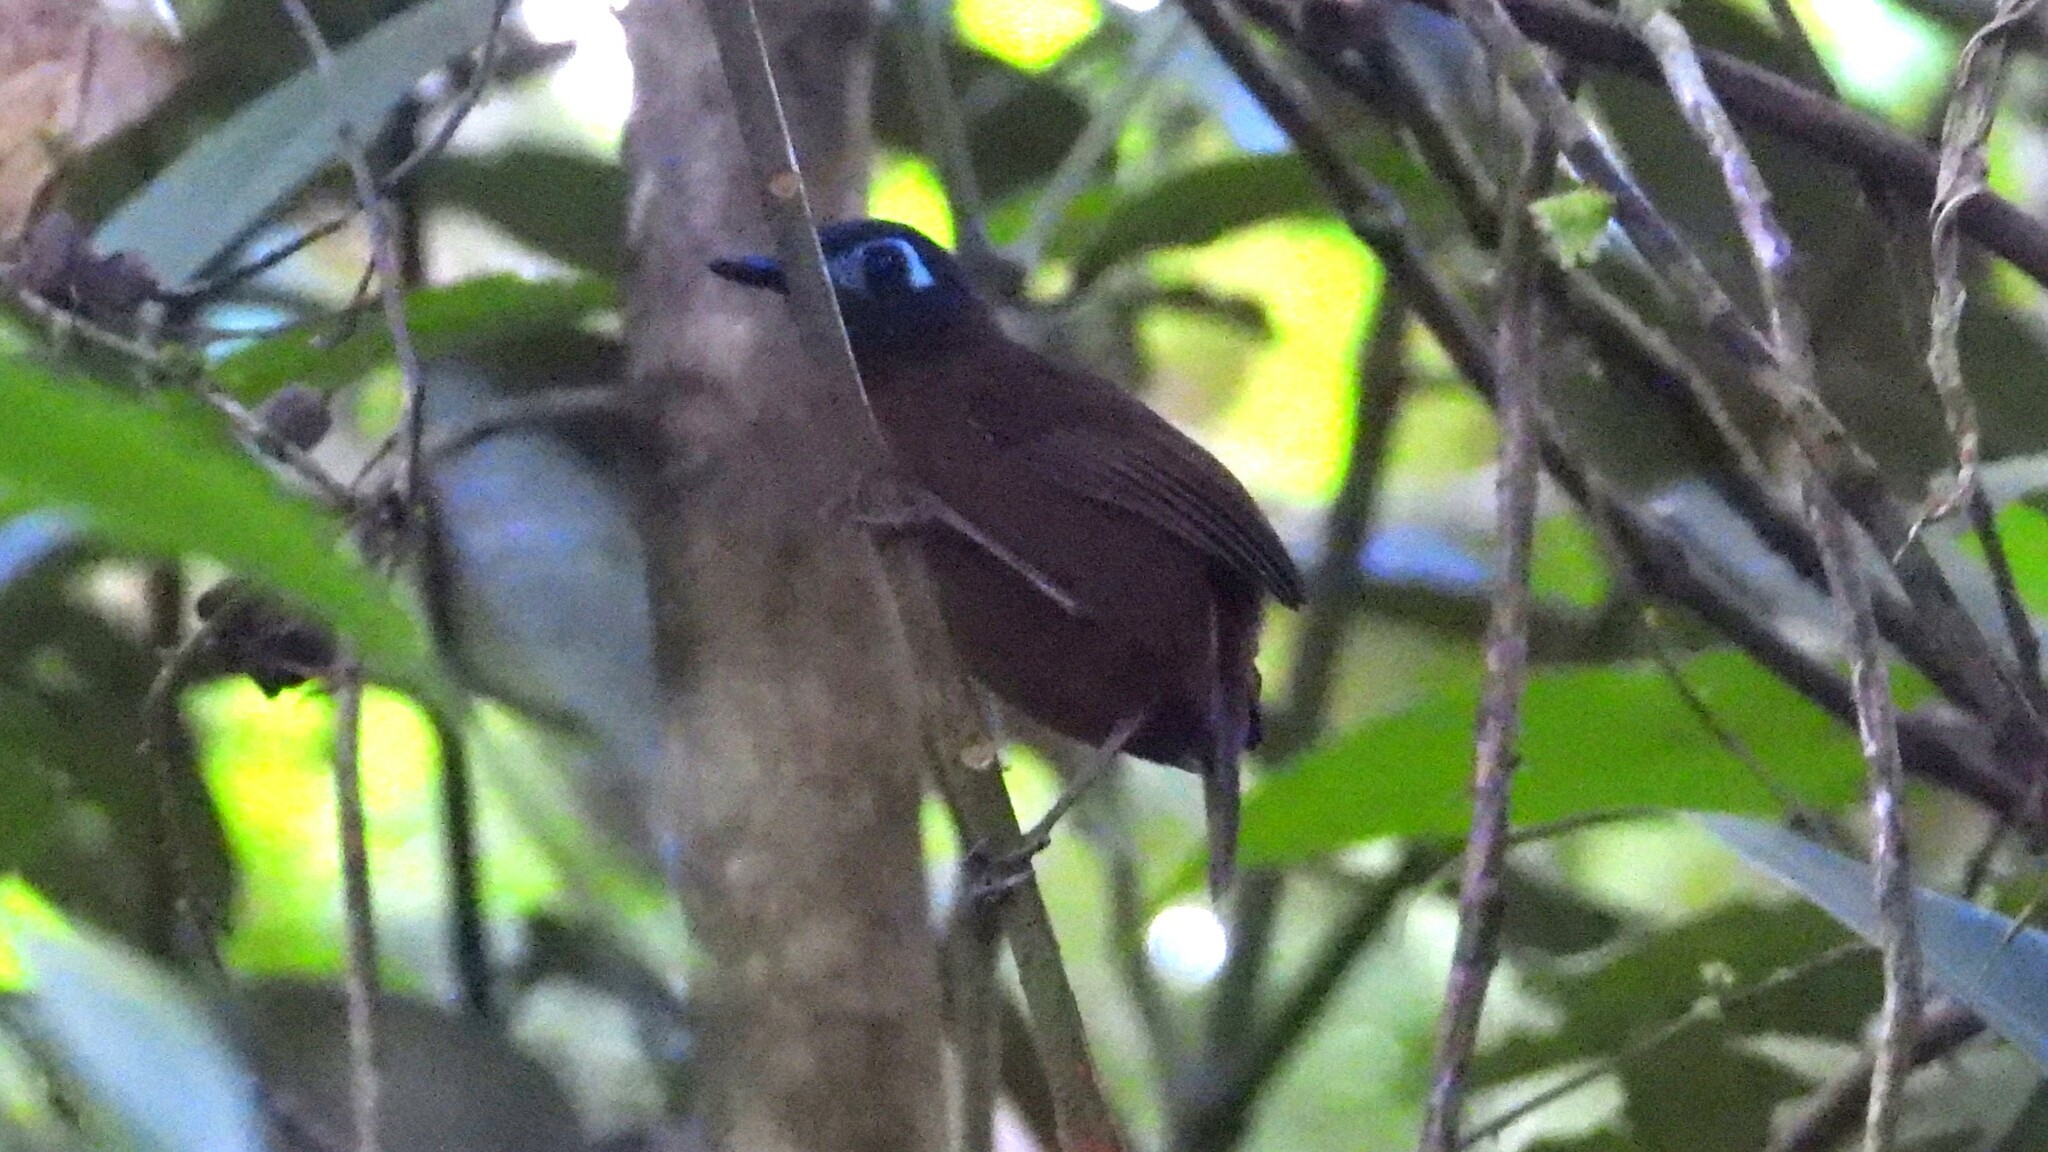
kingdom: Animalia
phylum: Chordata
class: Aves
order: Passeriformes
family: Thamnophilidae
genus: Myrmeciza
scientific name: Myrmeciza exsul
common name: Chestnut-backed antbird
